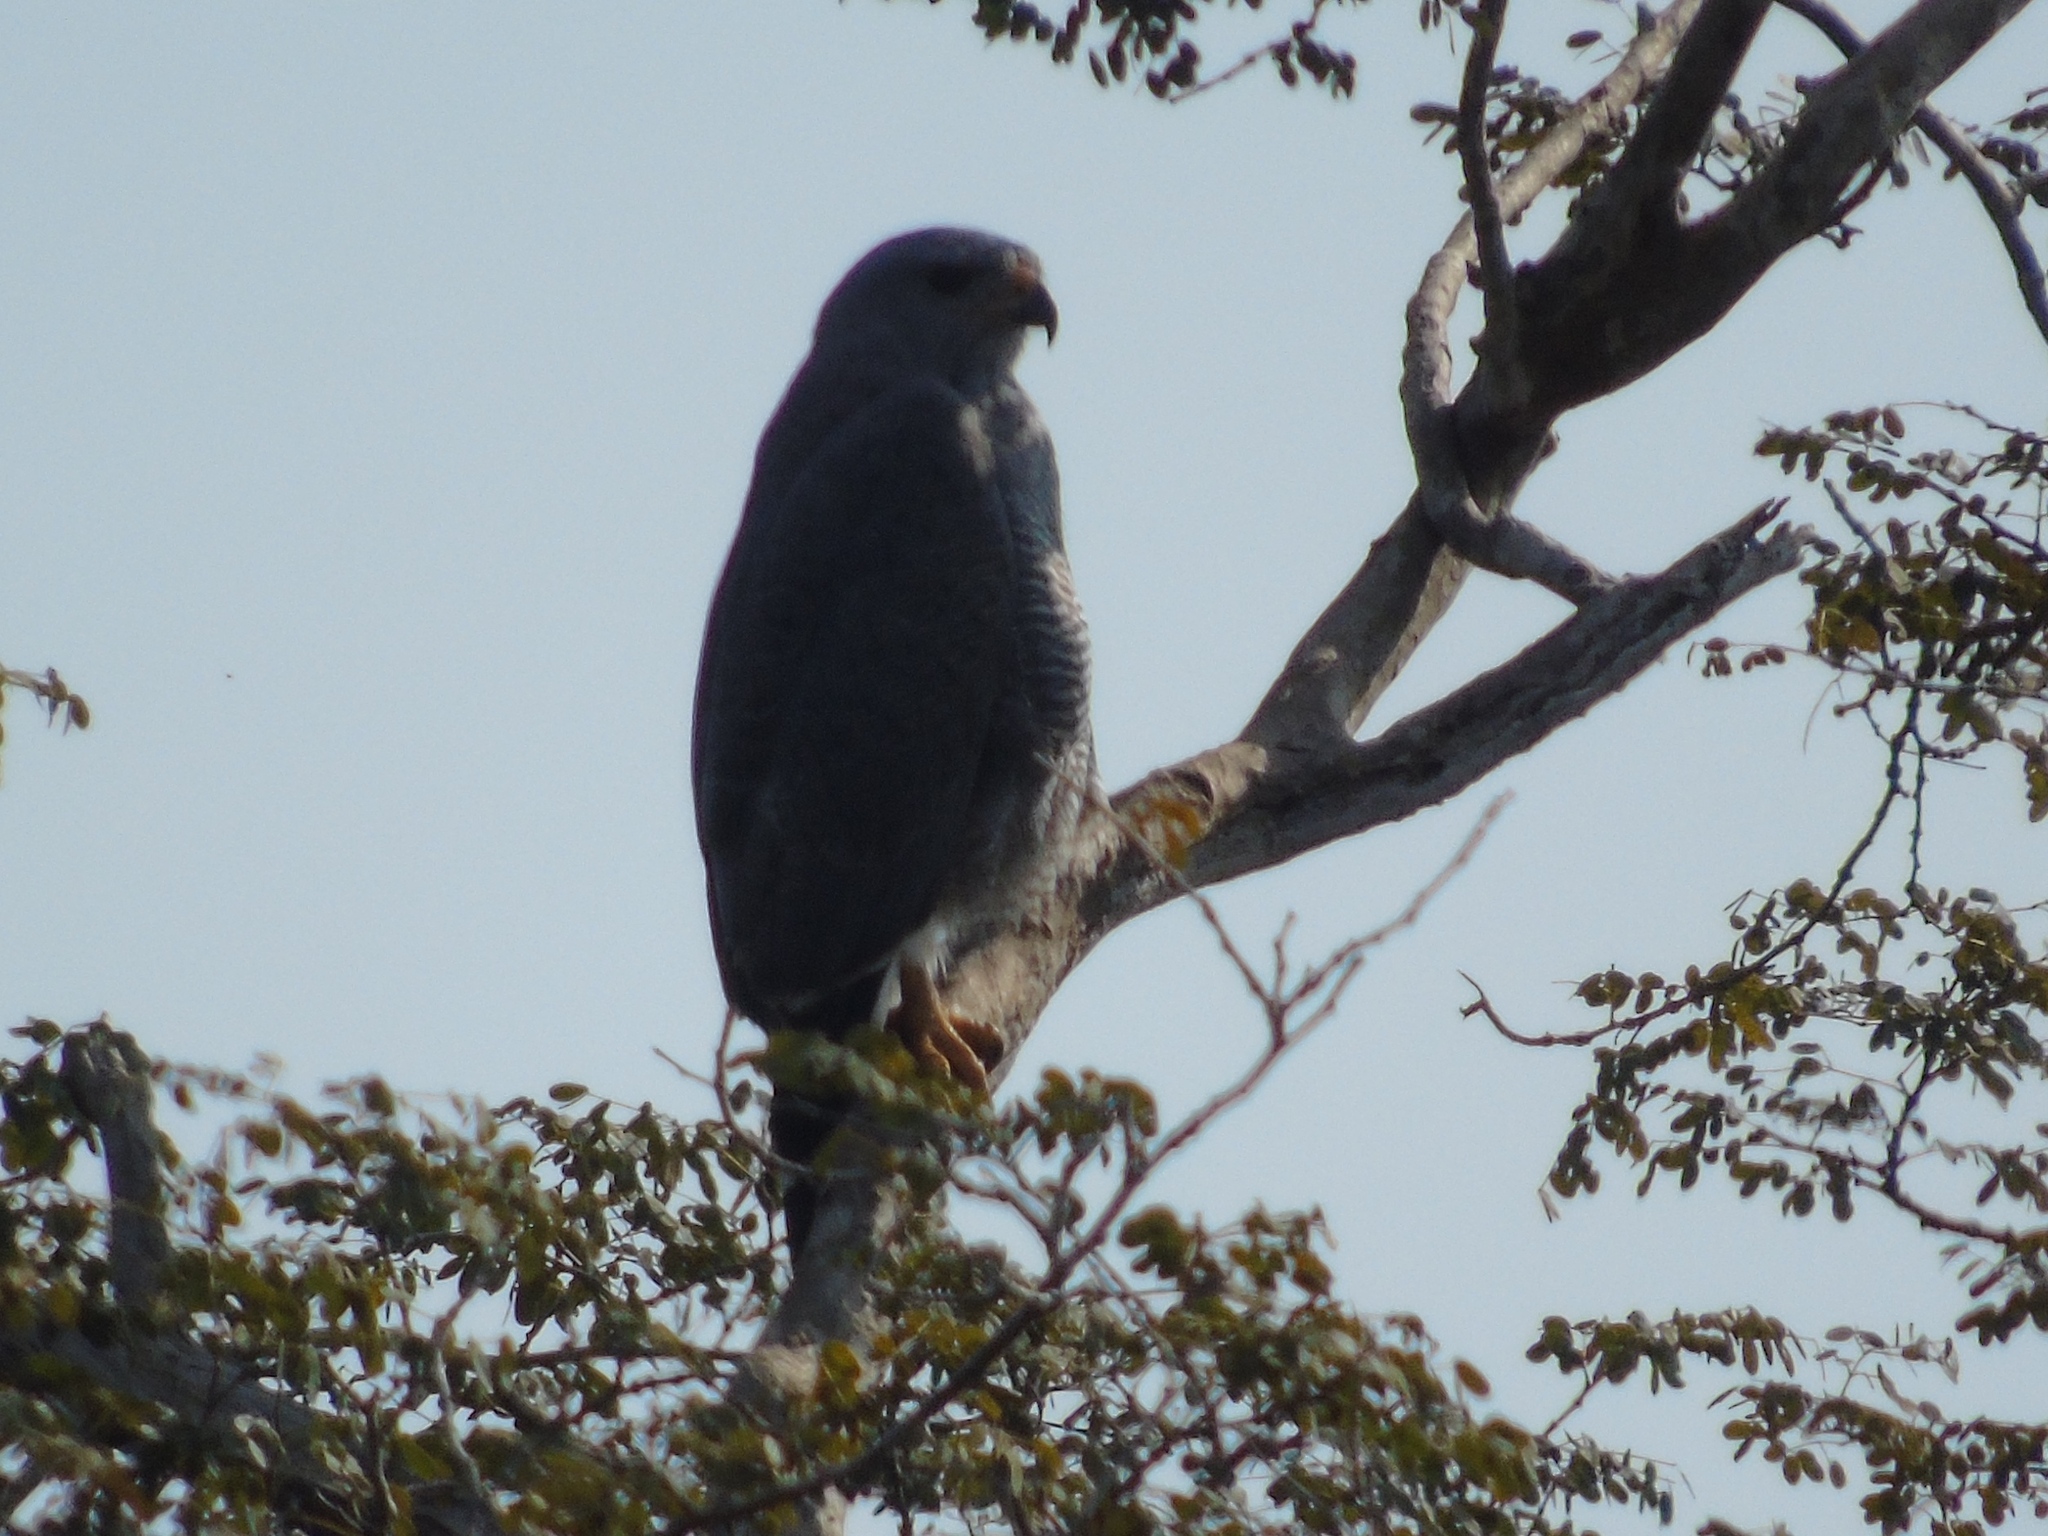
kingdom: Animalia
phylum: Chordata
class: Aves
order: Accipitriformes
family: Accipitridae
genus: Buteo
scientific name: Buteo nitidus
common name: Grey-lined hawk
